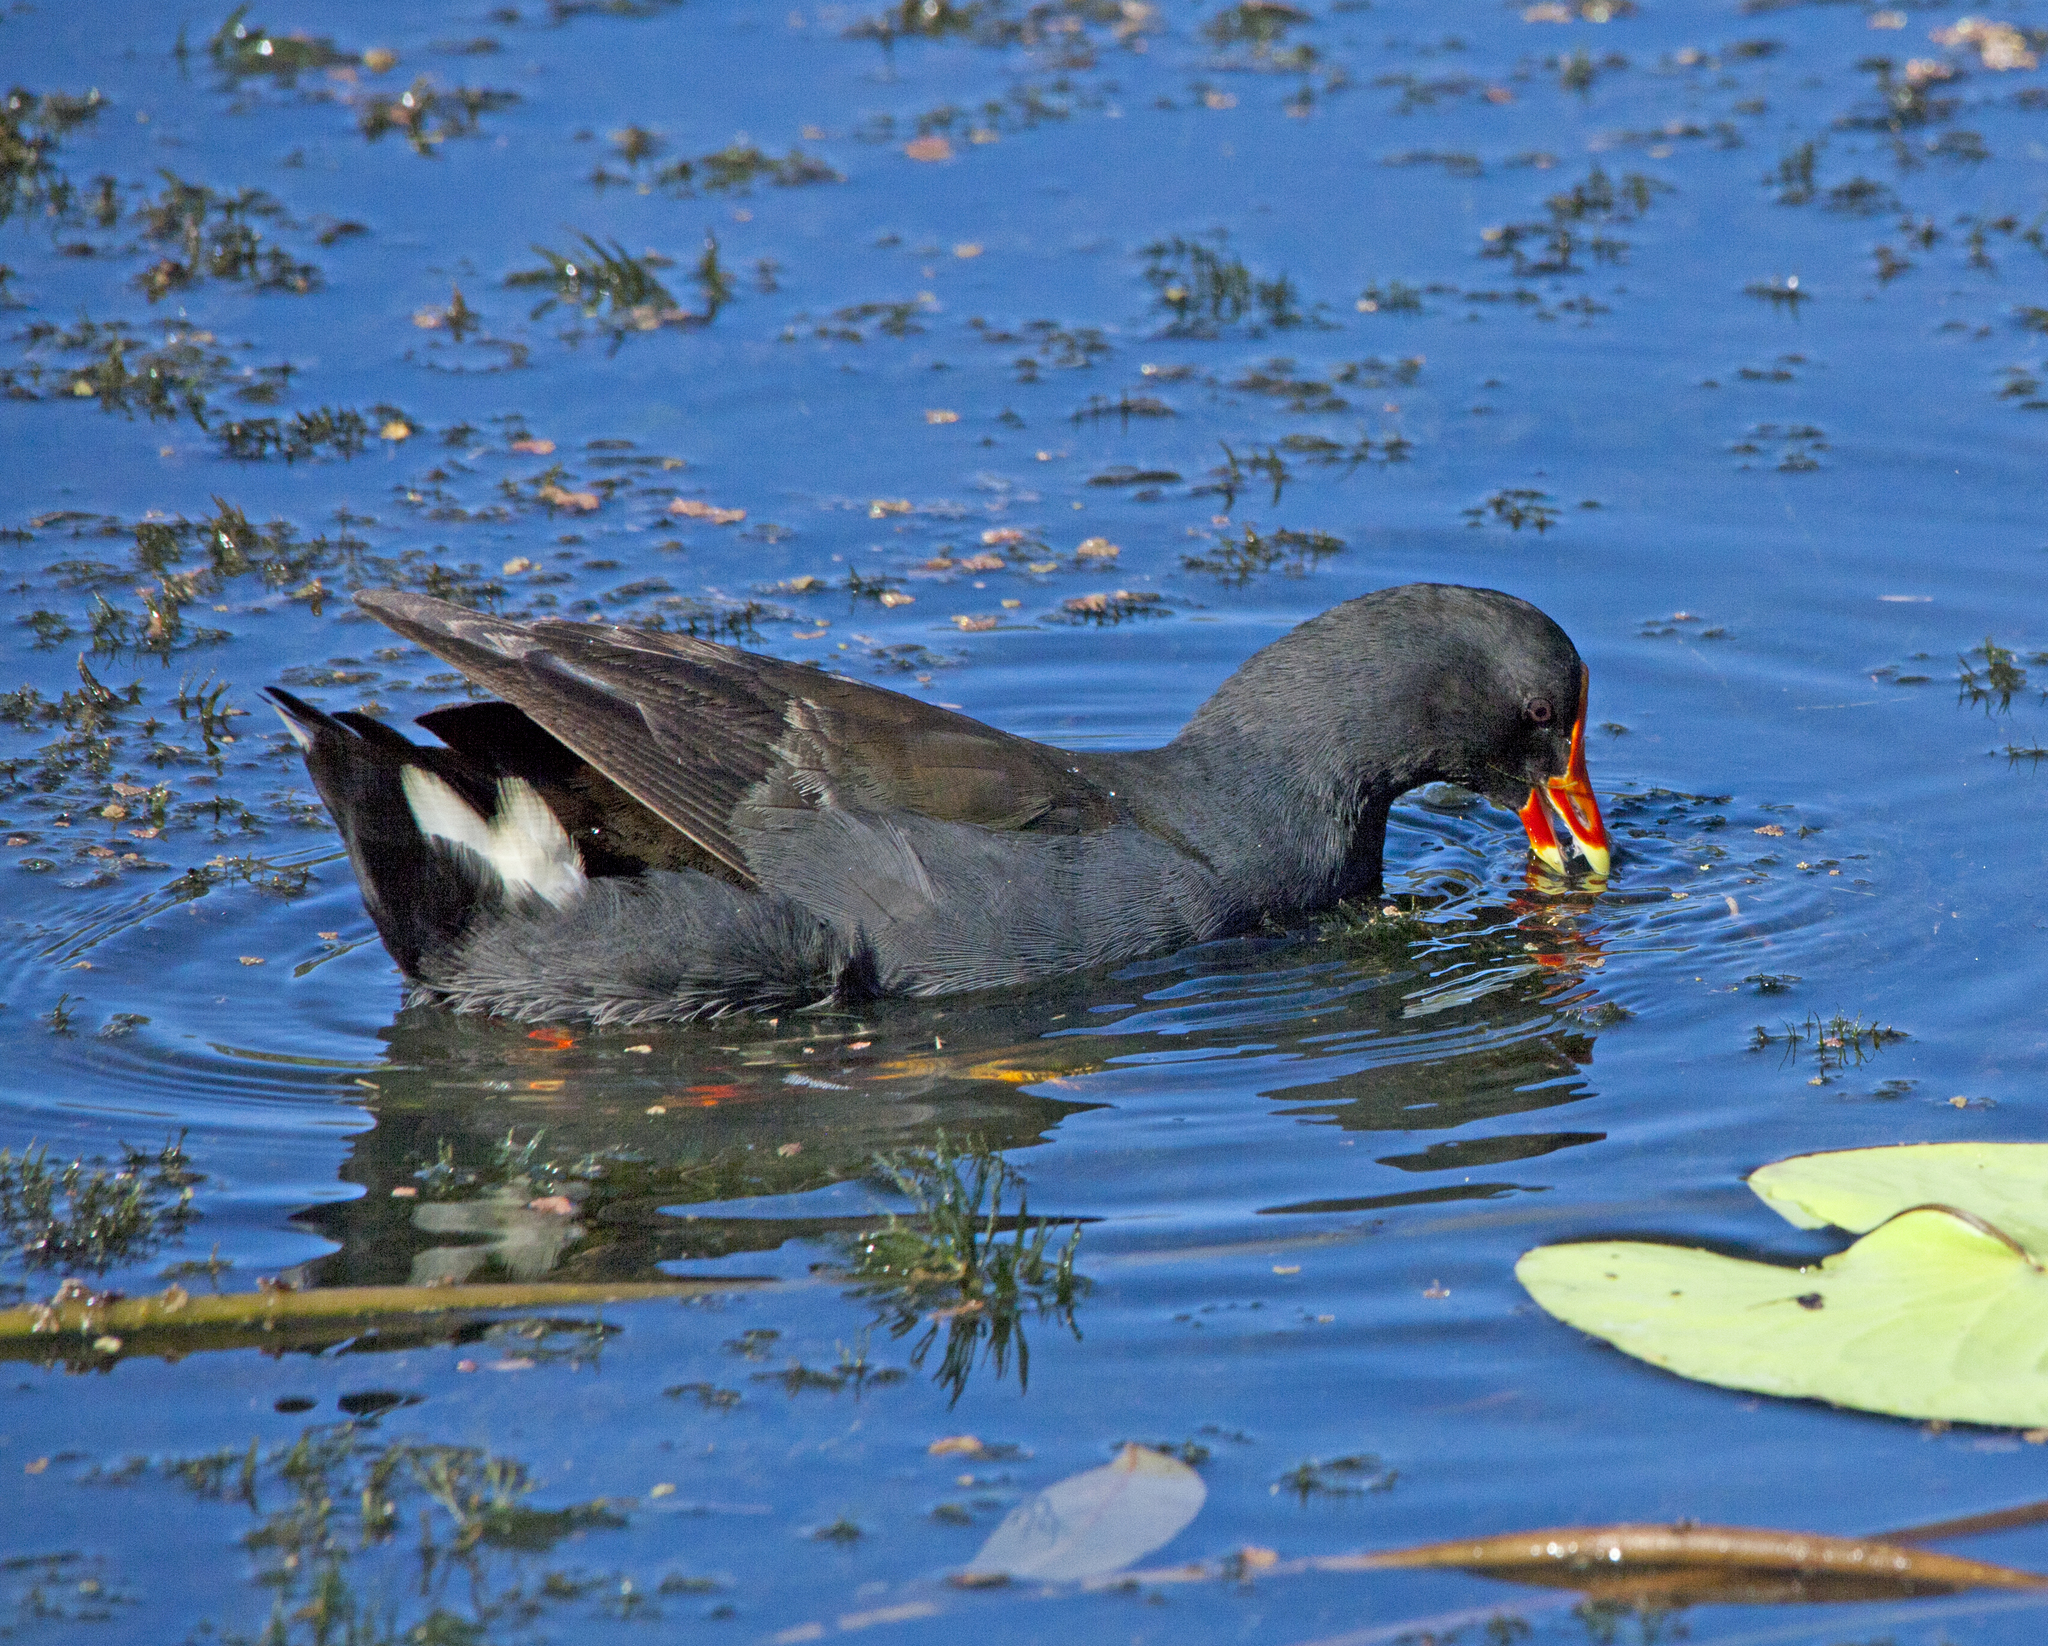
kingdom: Animalia
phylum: Chordata
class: Aves
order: Gruiformes
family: Rallidae
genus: Gallinula
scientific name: Gallinula tenebrosa
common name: Dusky moorhen
